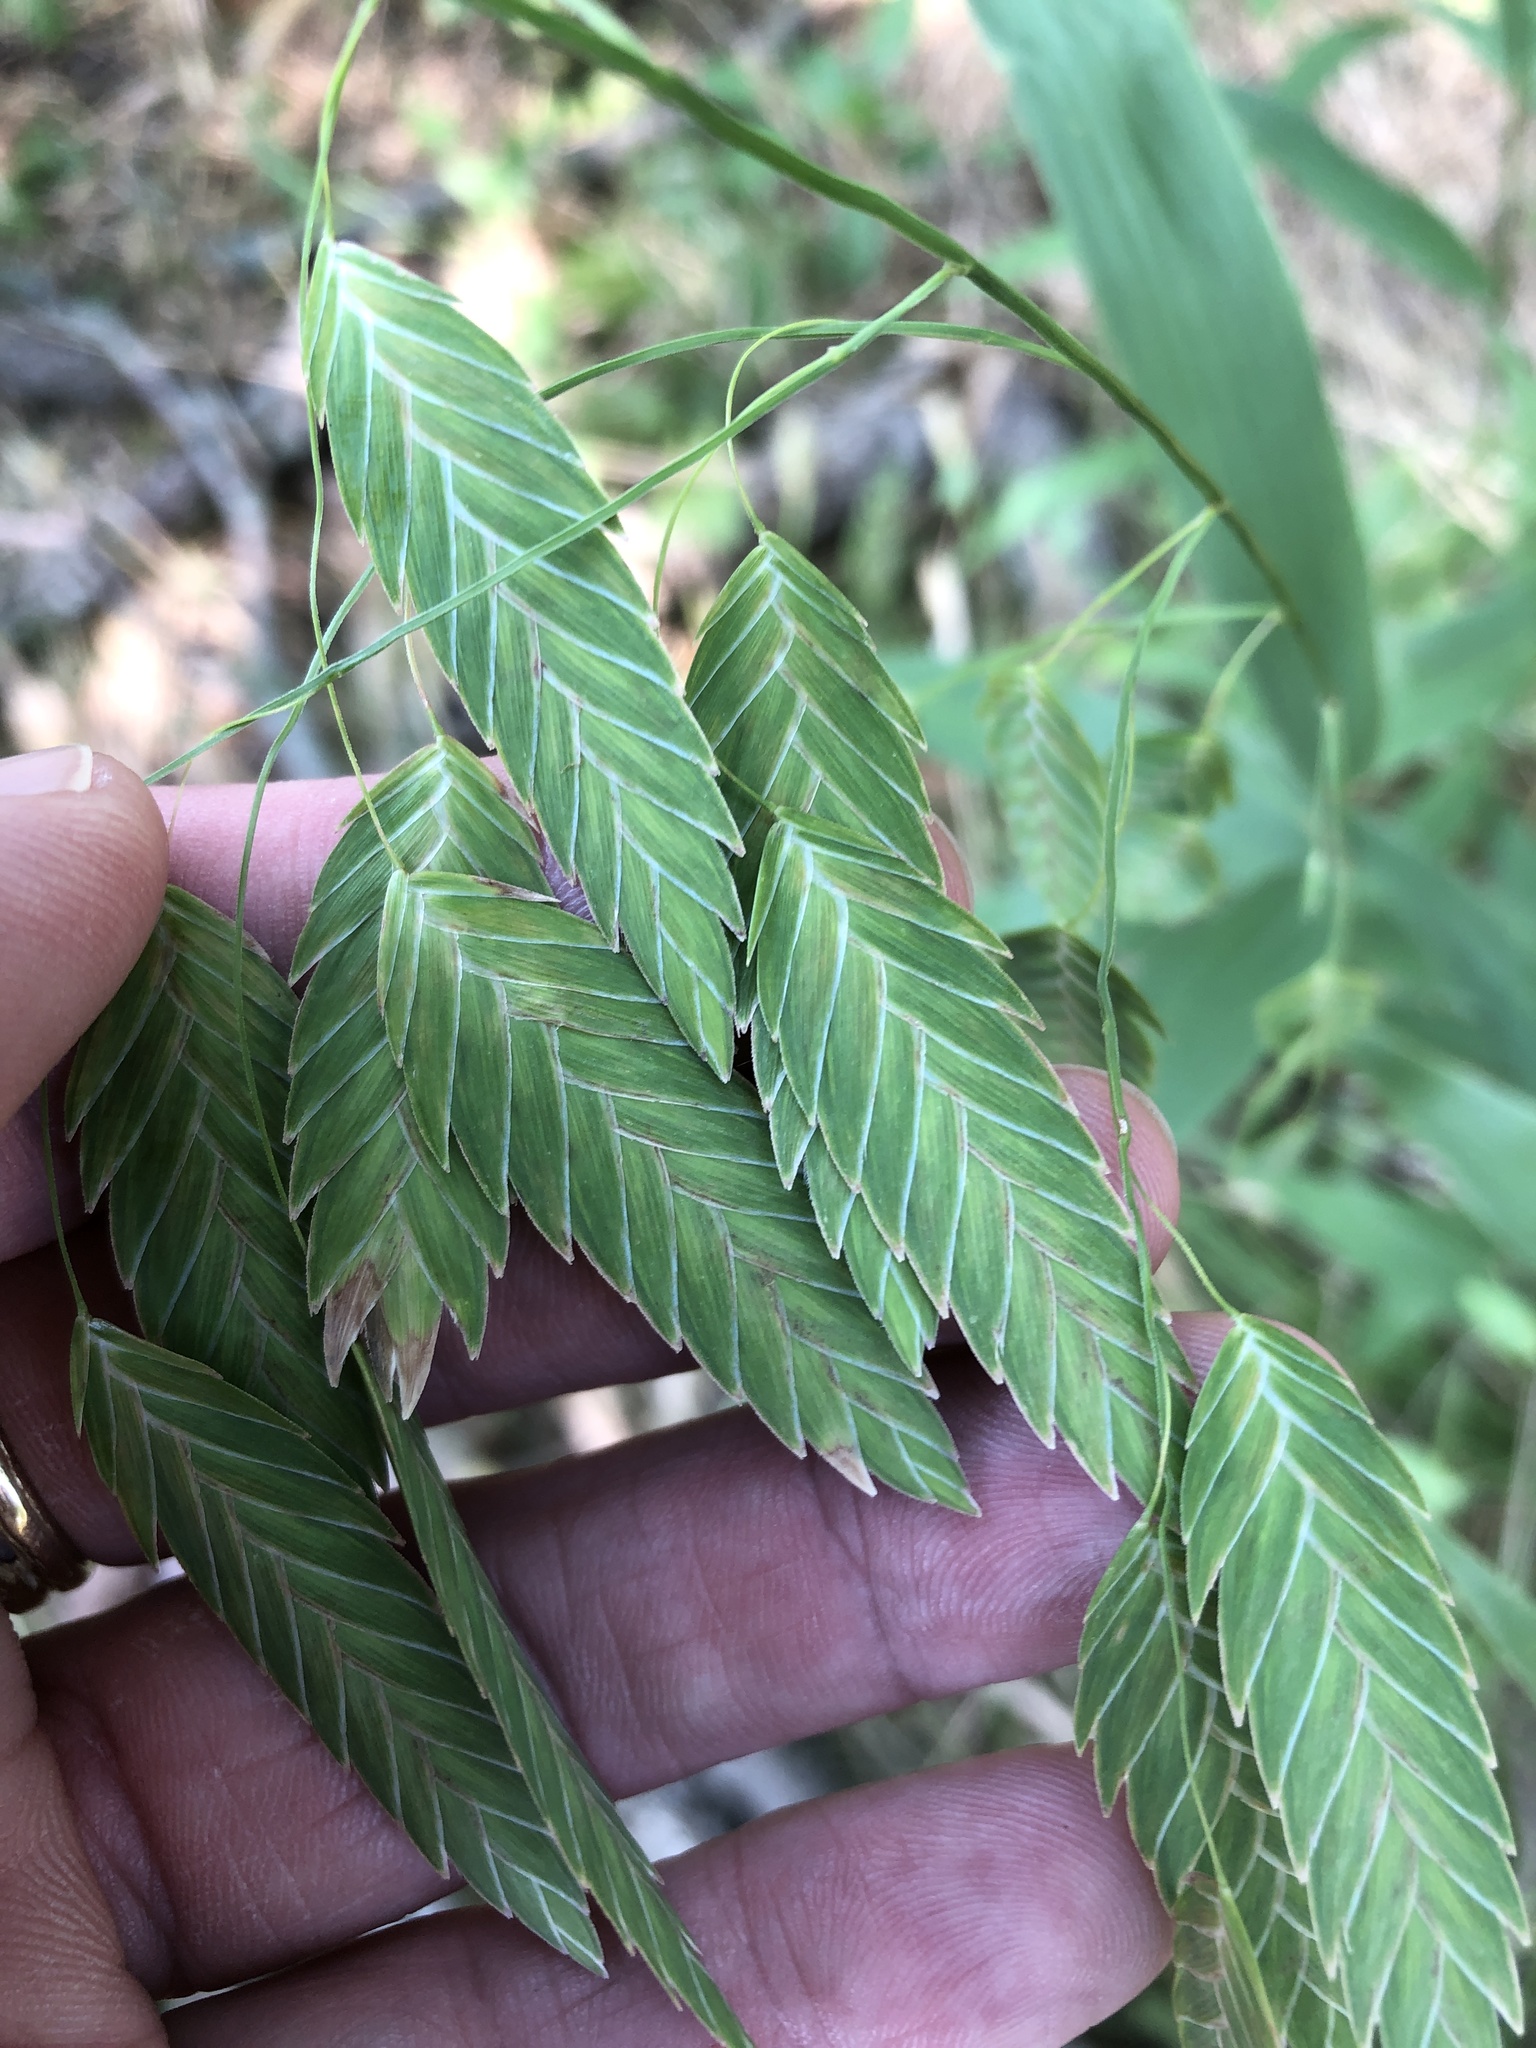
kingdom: Plantae
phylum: Tracheophyta
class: Liliopsida
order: Poales
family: Poaceae
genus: Chasmanthium
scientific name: Chasmanthium latifolium
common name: Broad-leaved chasmanthium
